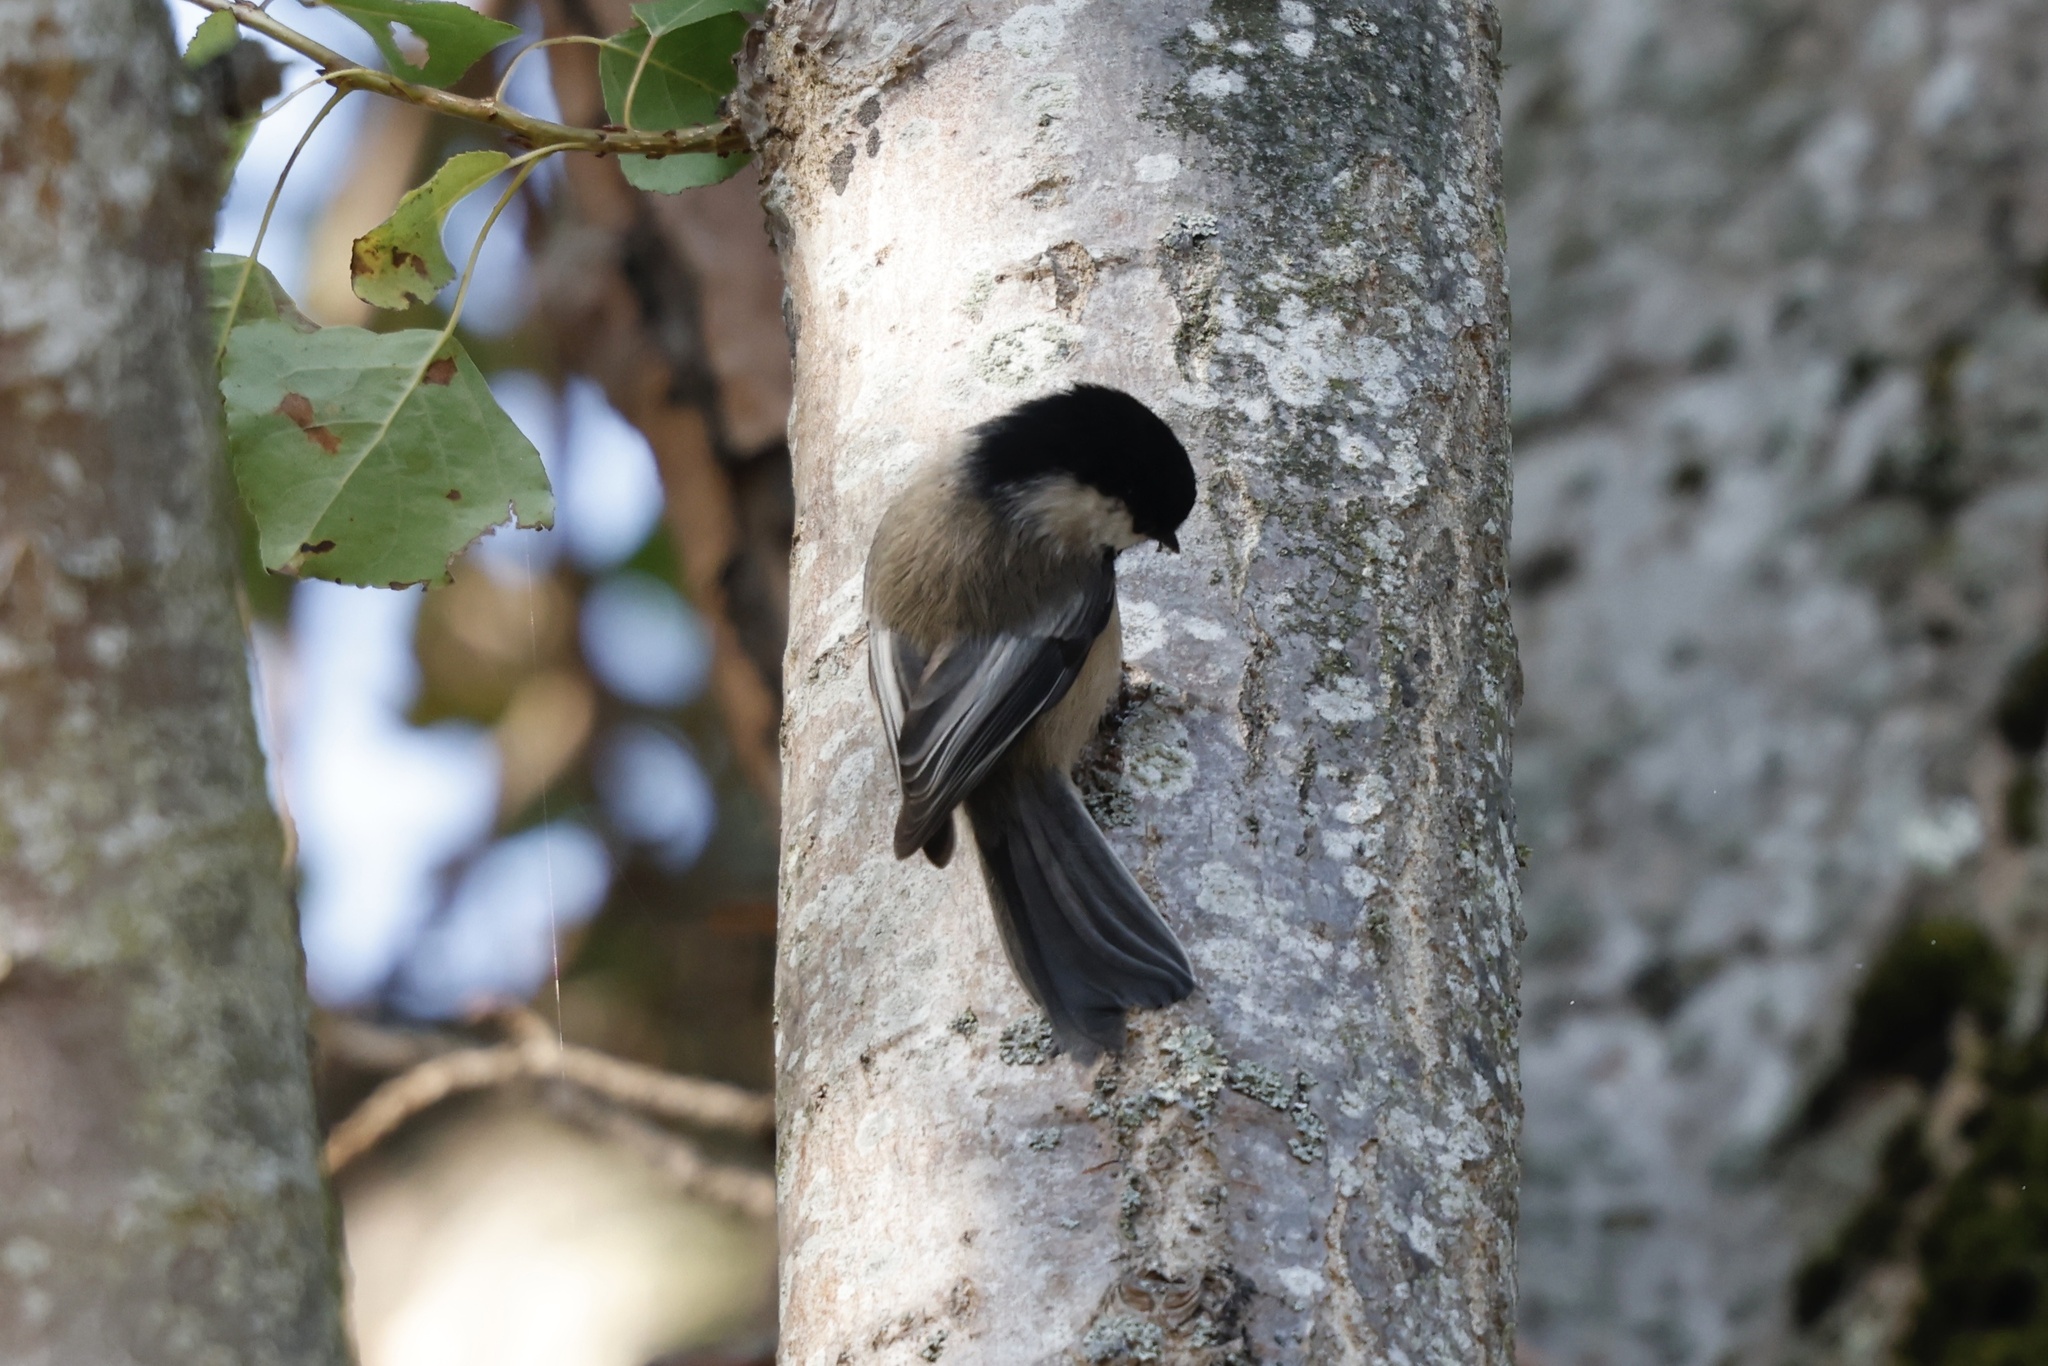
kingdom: Animalia
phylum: Chordata
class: Aves
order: Passeriformes
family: Paridae
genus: Poecile
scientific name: Poecile atricapillus
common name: Black-capped chickadee
